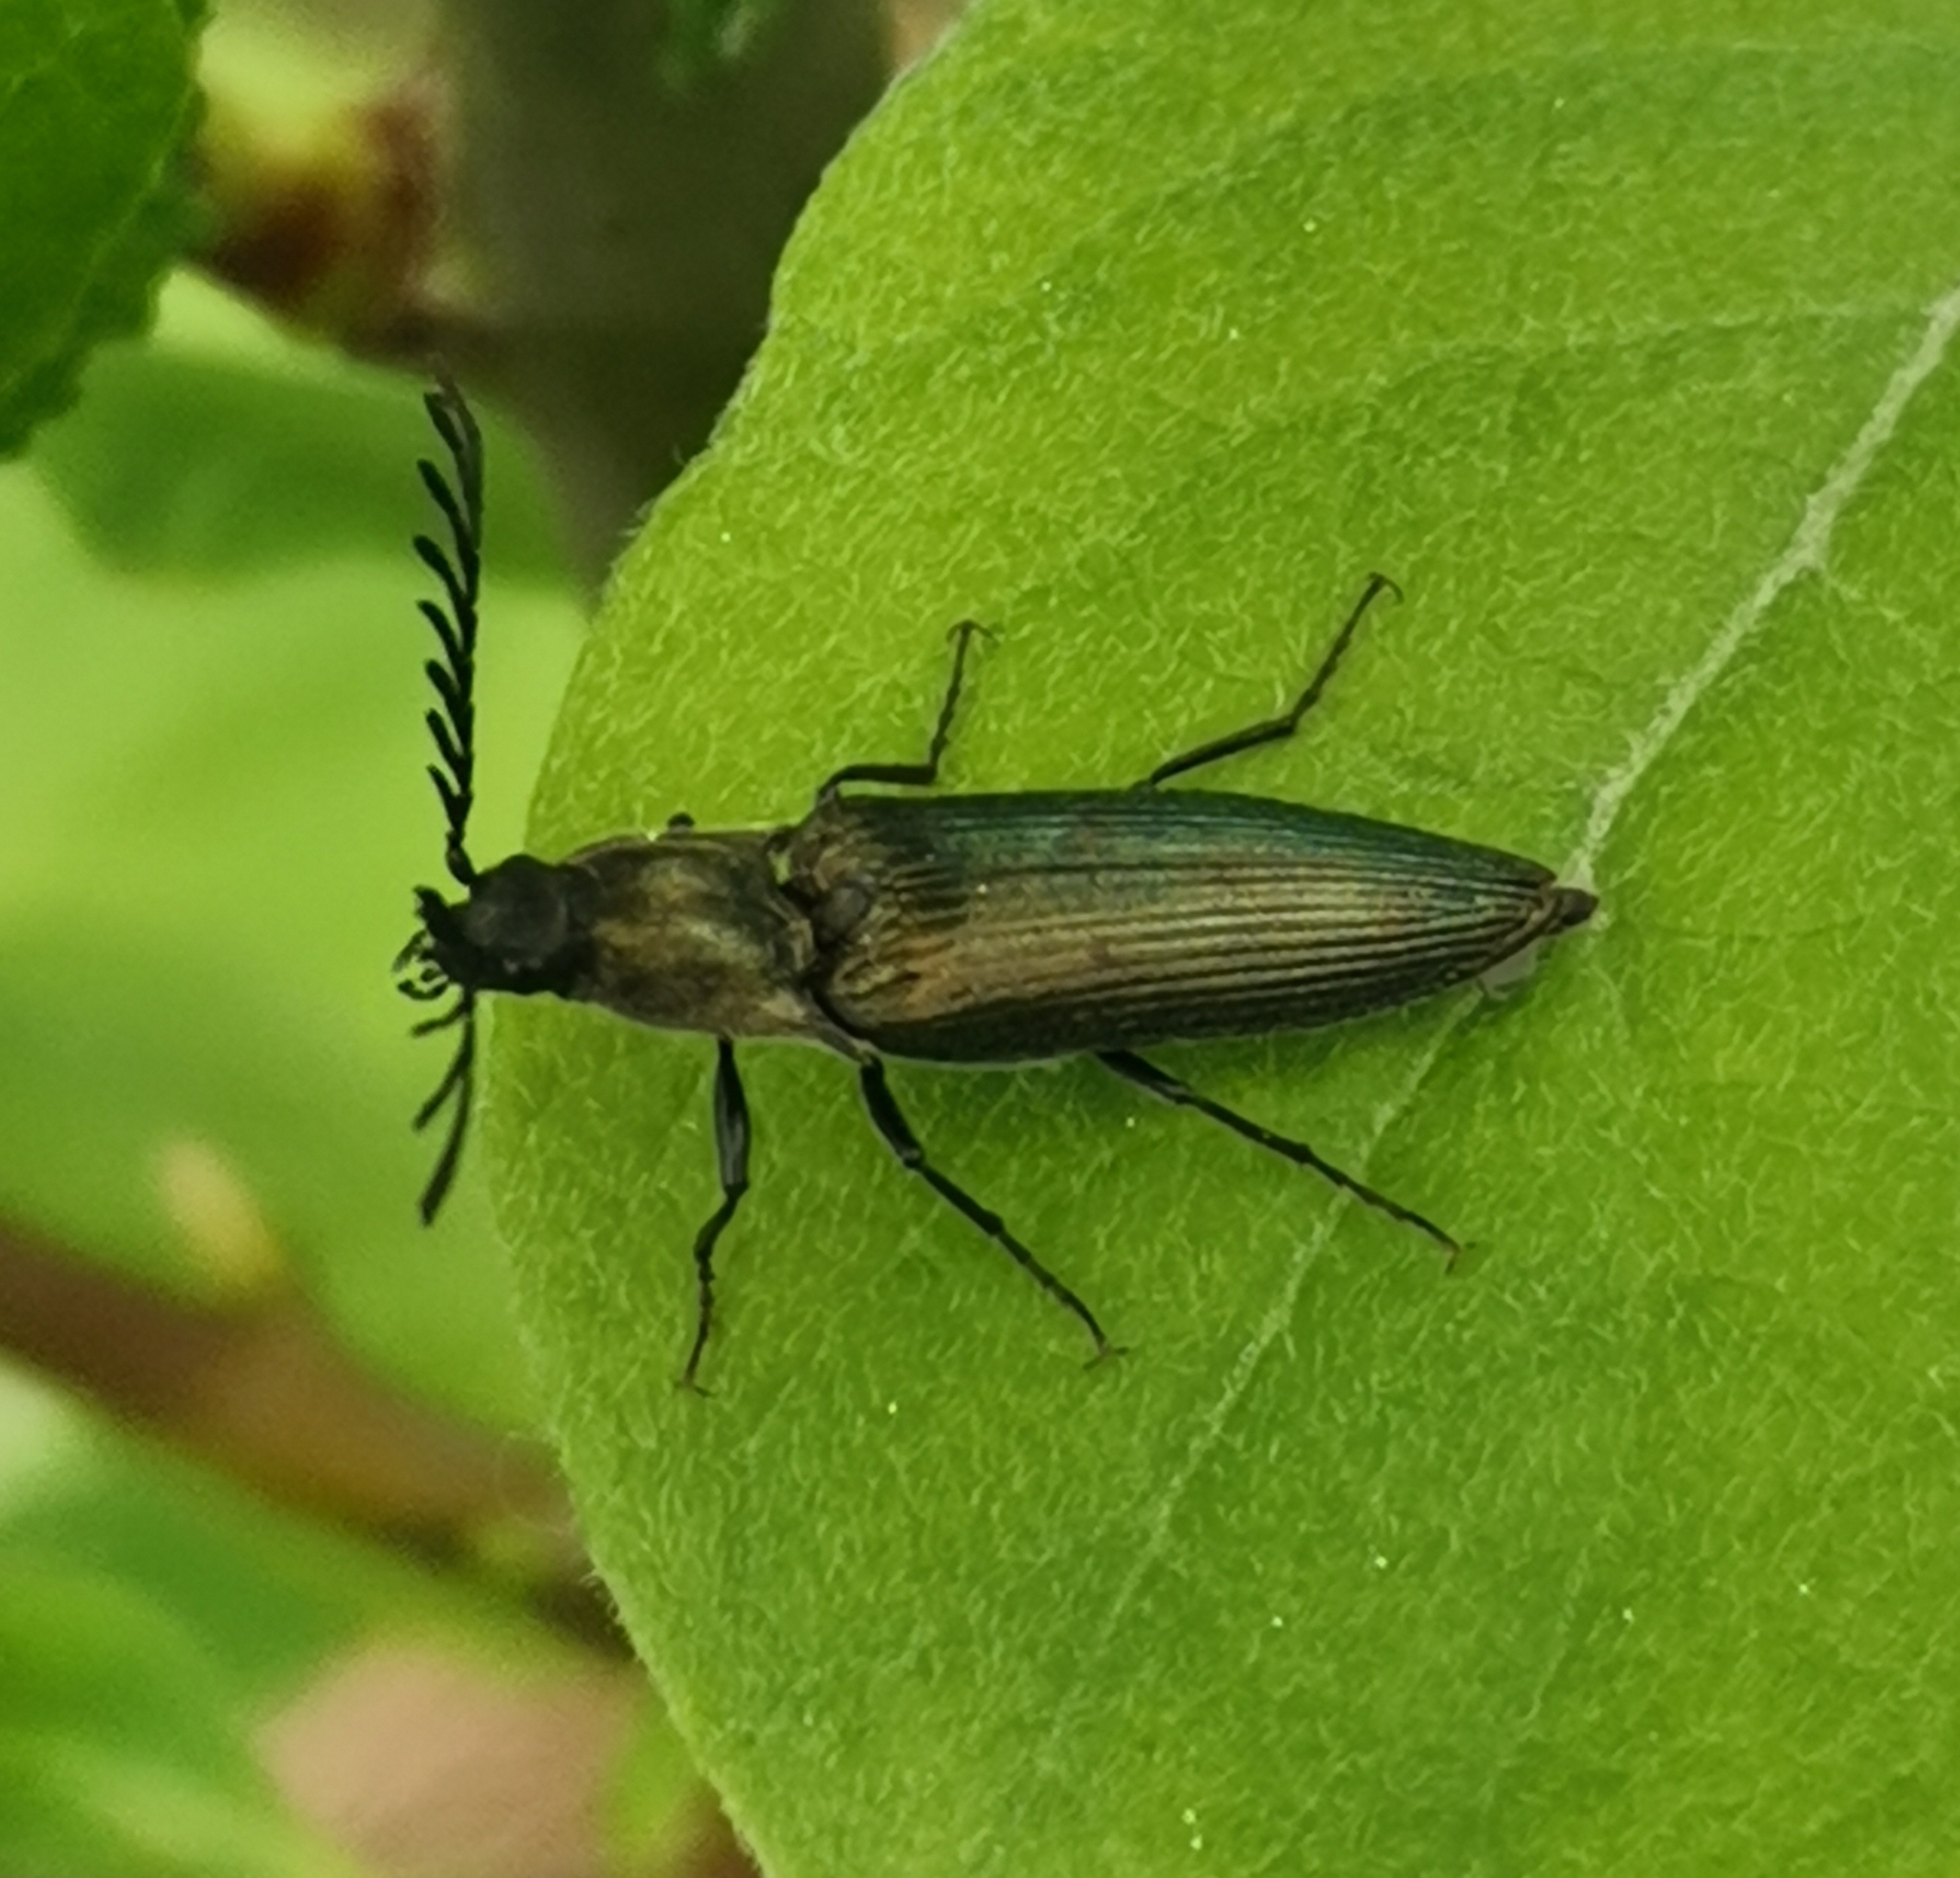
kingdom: Animalia
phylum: Arthropoda
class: Insecta
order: Coleoptera
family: Elateridae
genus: Ctenicera
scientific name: Ctenicera pectinicornis
